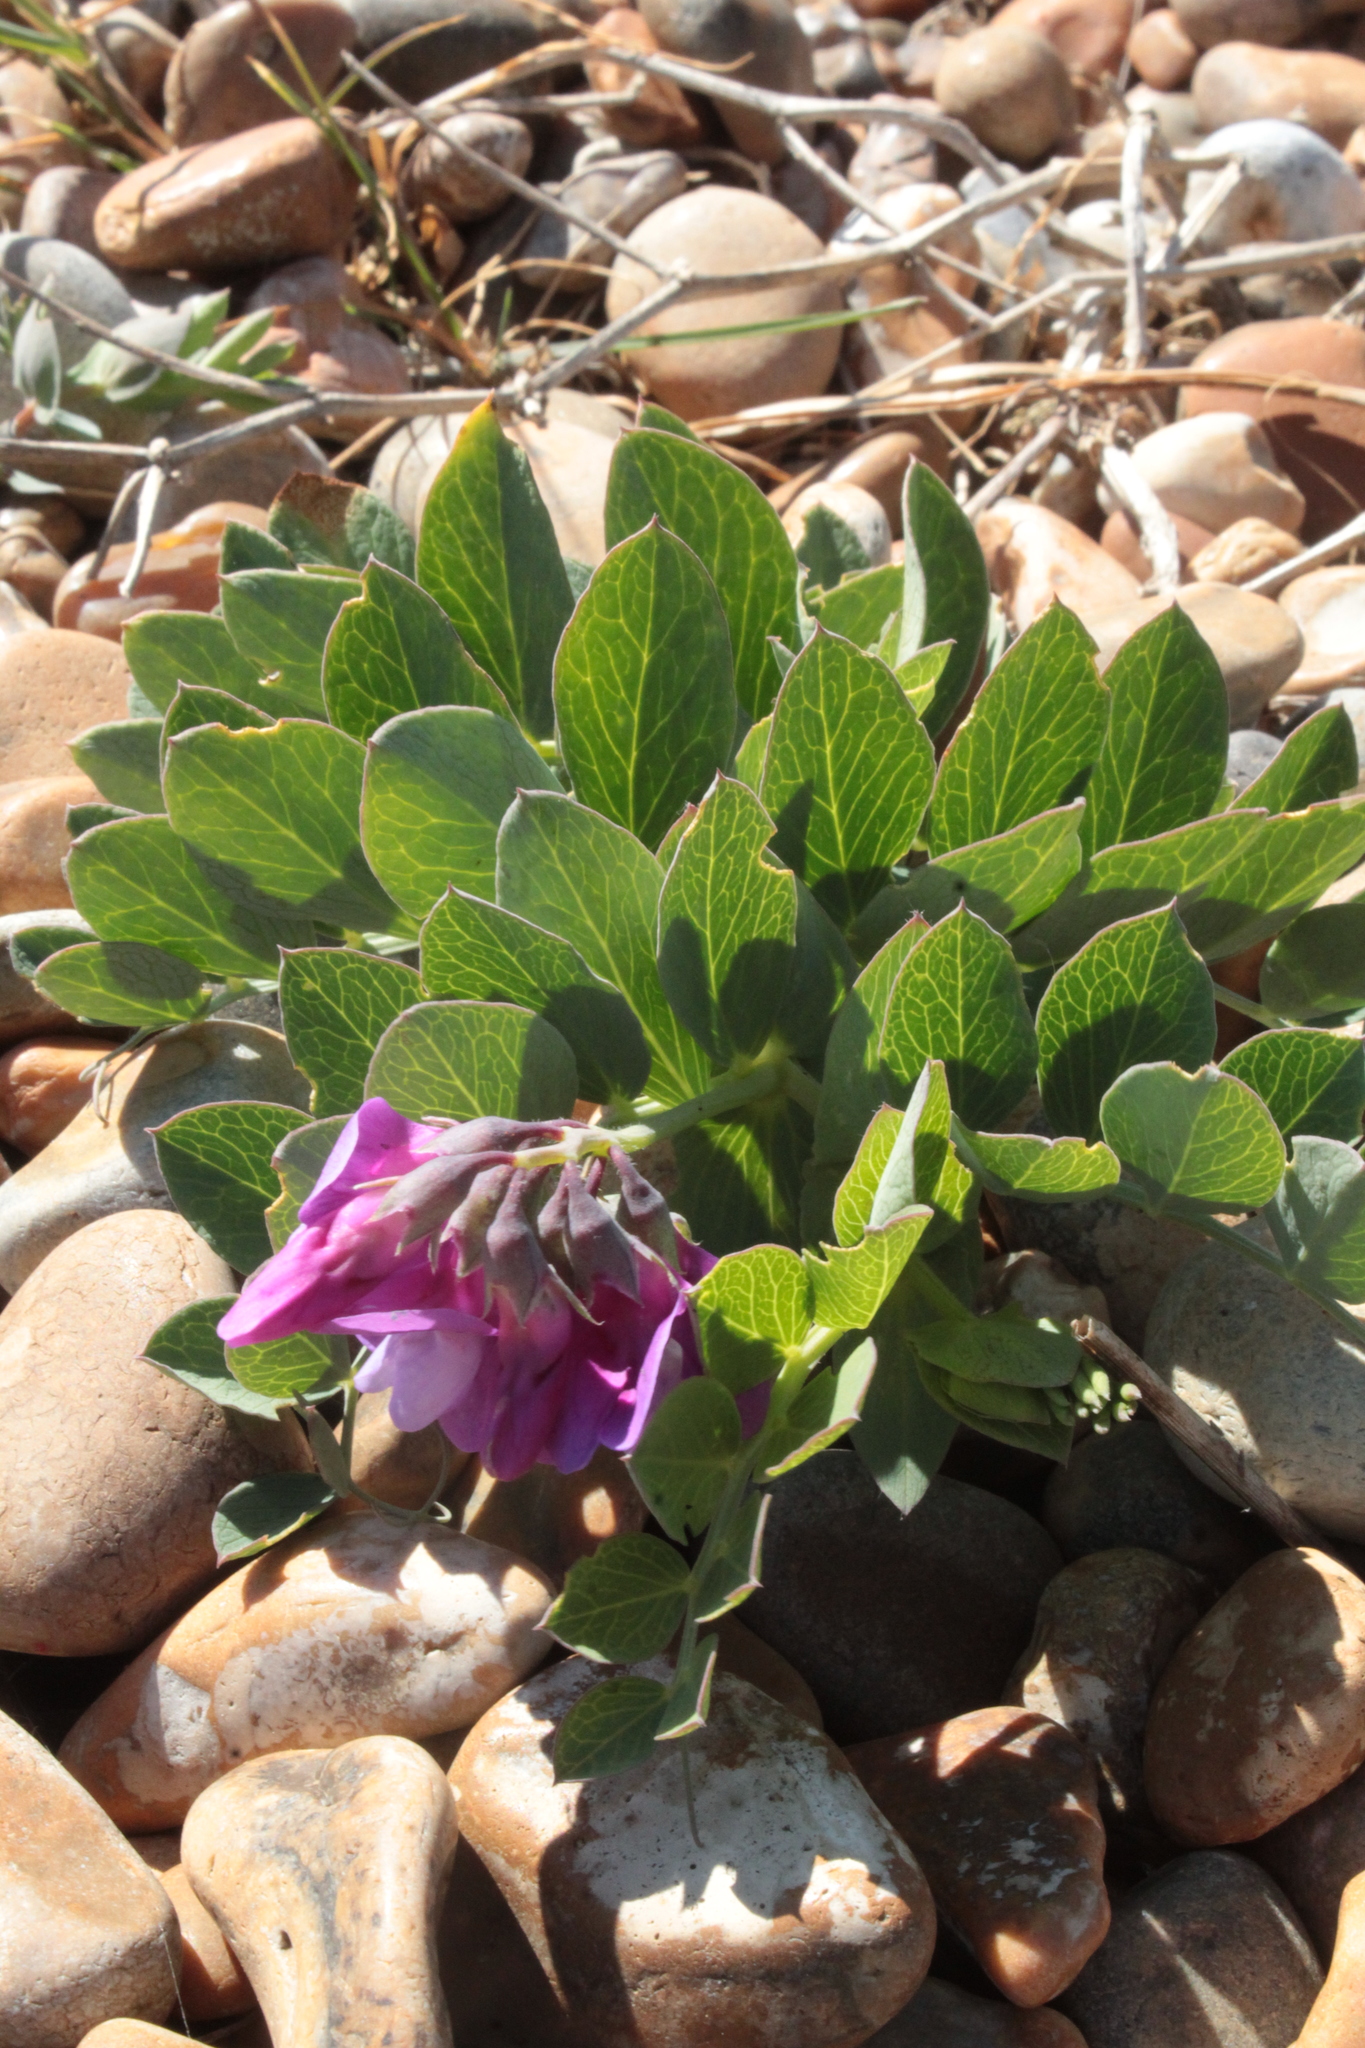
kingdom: Plantae
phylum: Tracheophyta
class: Magnoliopsida
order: Fabales
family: Fabaceae
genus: Lathyrus
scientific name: Lathyrus japonicus
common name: Sea pea
